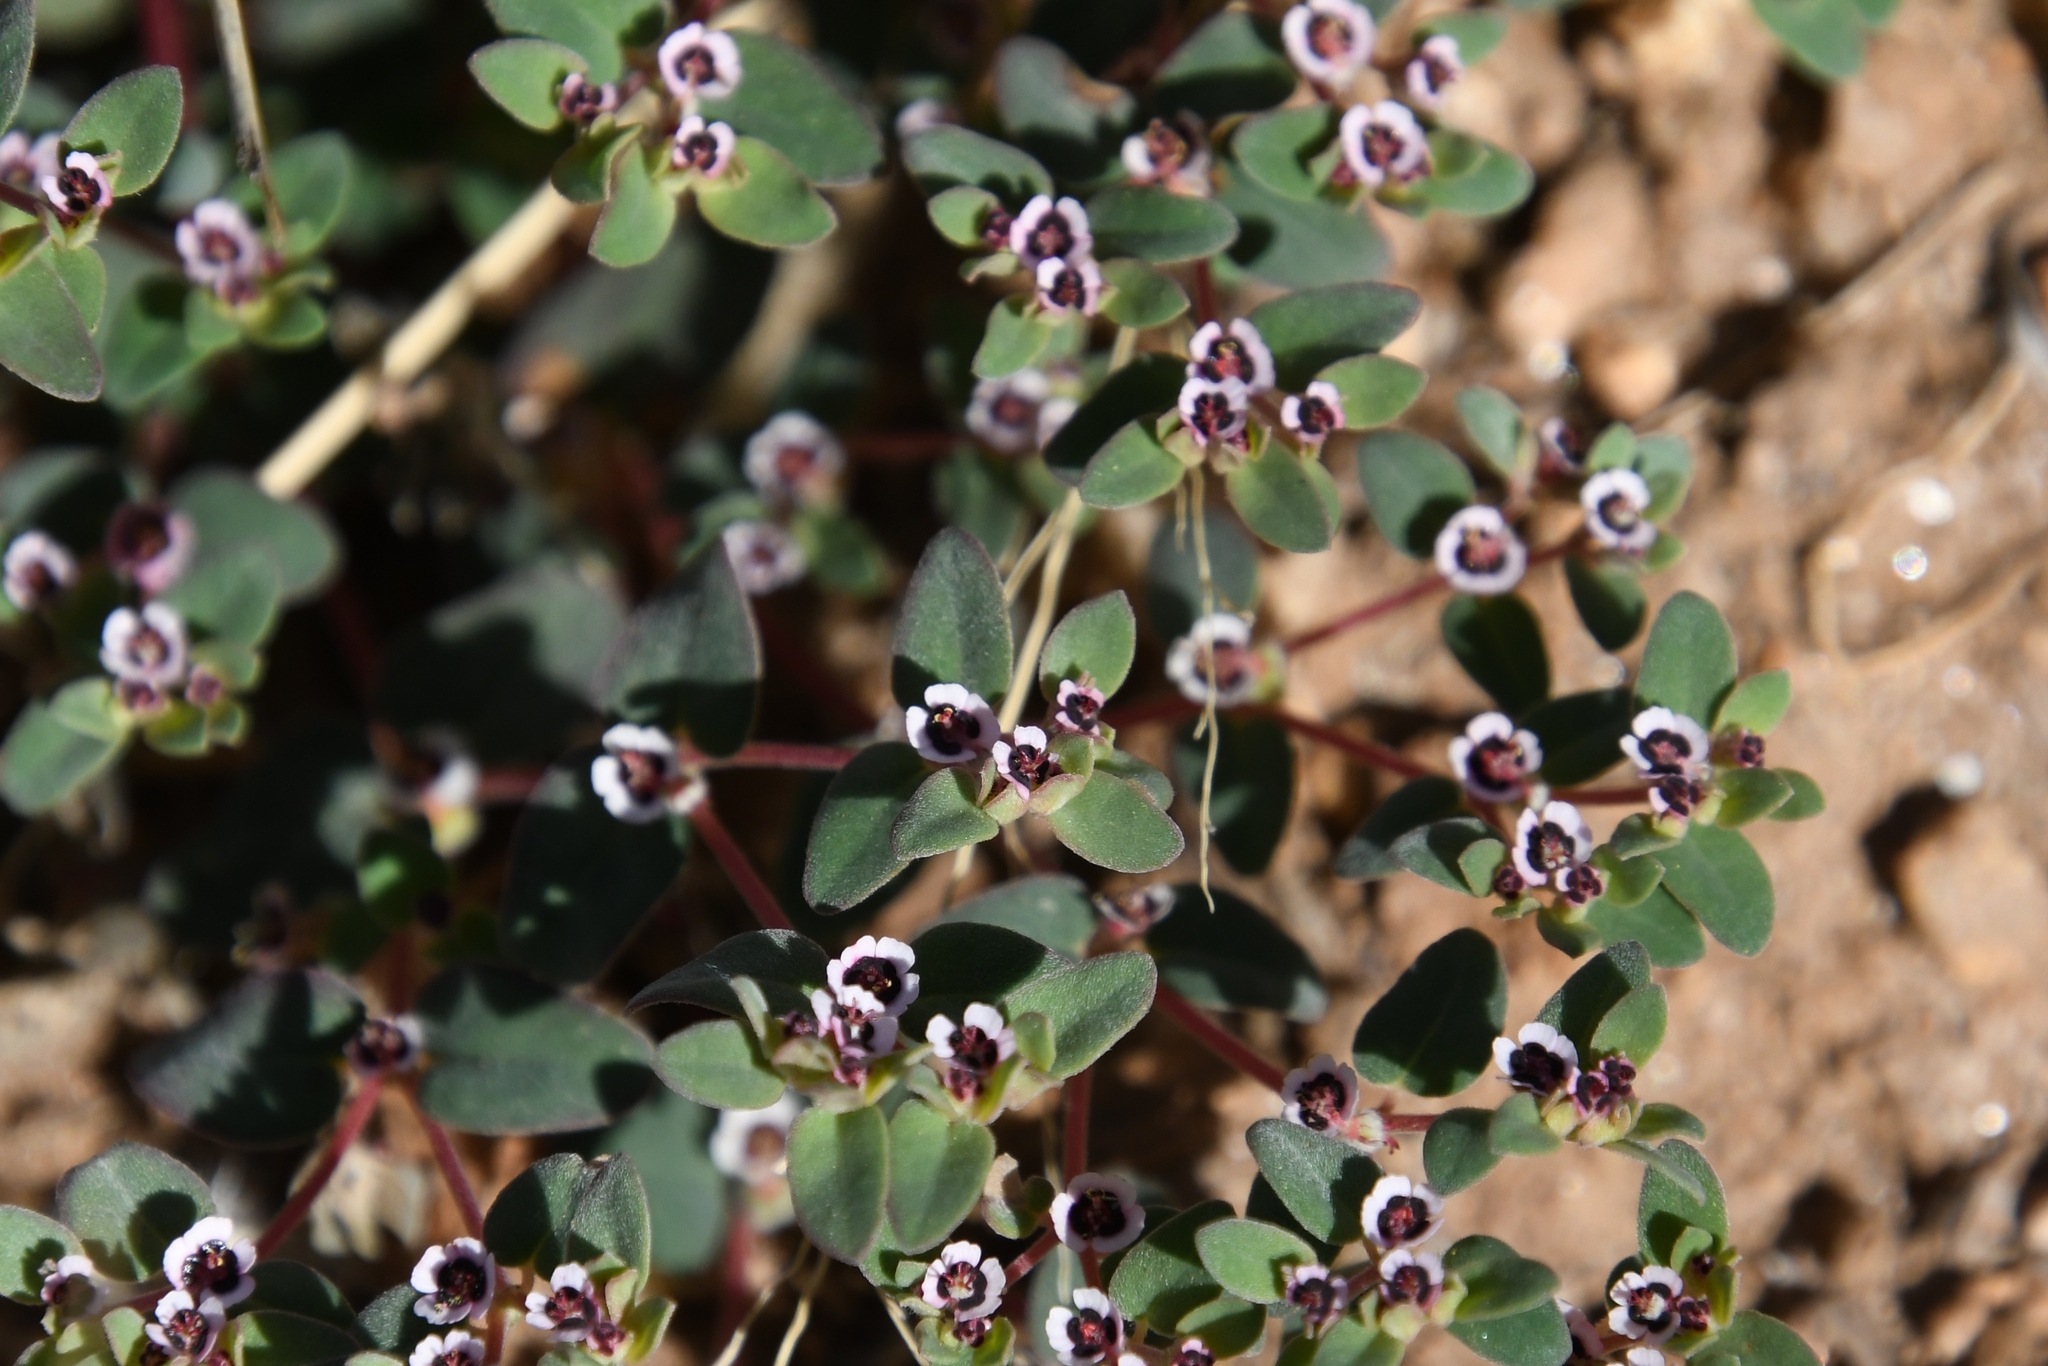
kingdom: Plantae
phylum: Tracheophyta
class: Magnoliopsida
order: Malpighiales
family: Euphorbiaceae
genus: Euphorbia
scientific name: Euphorbia melanadenia
